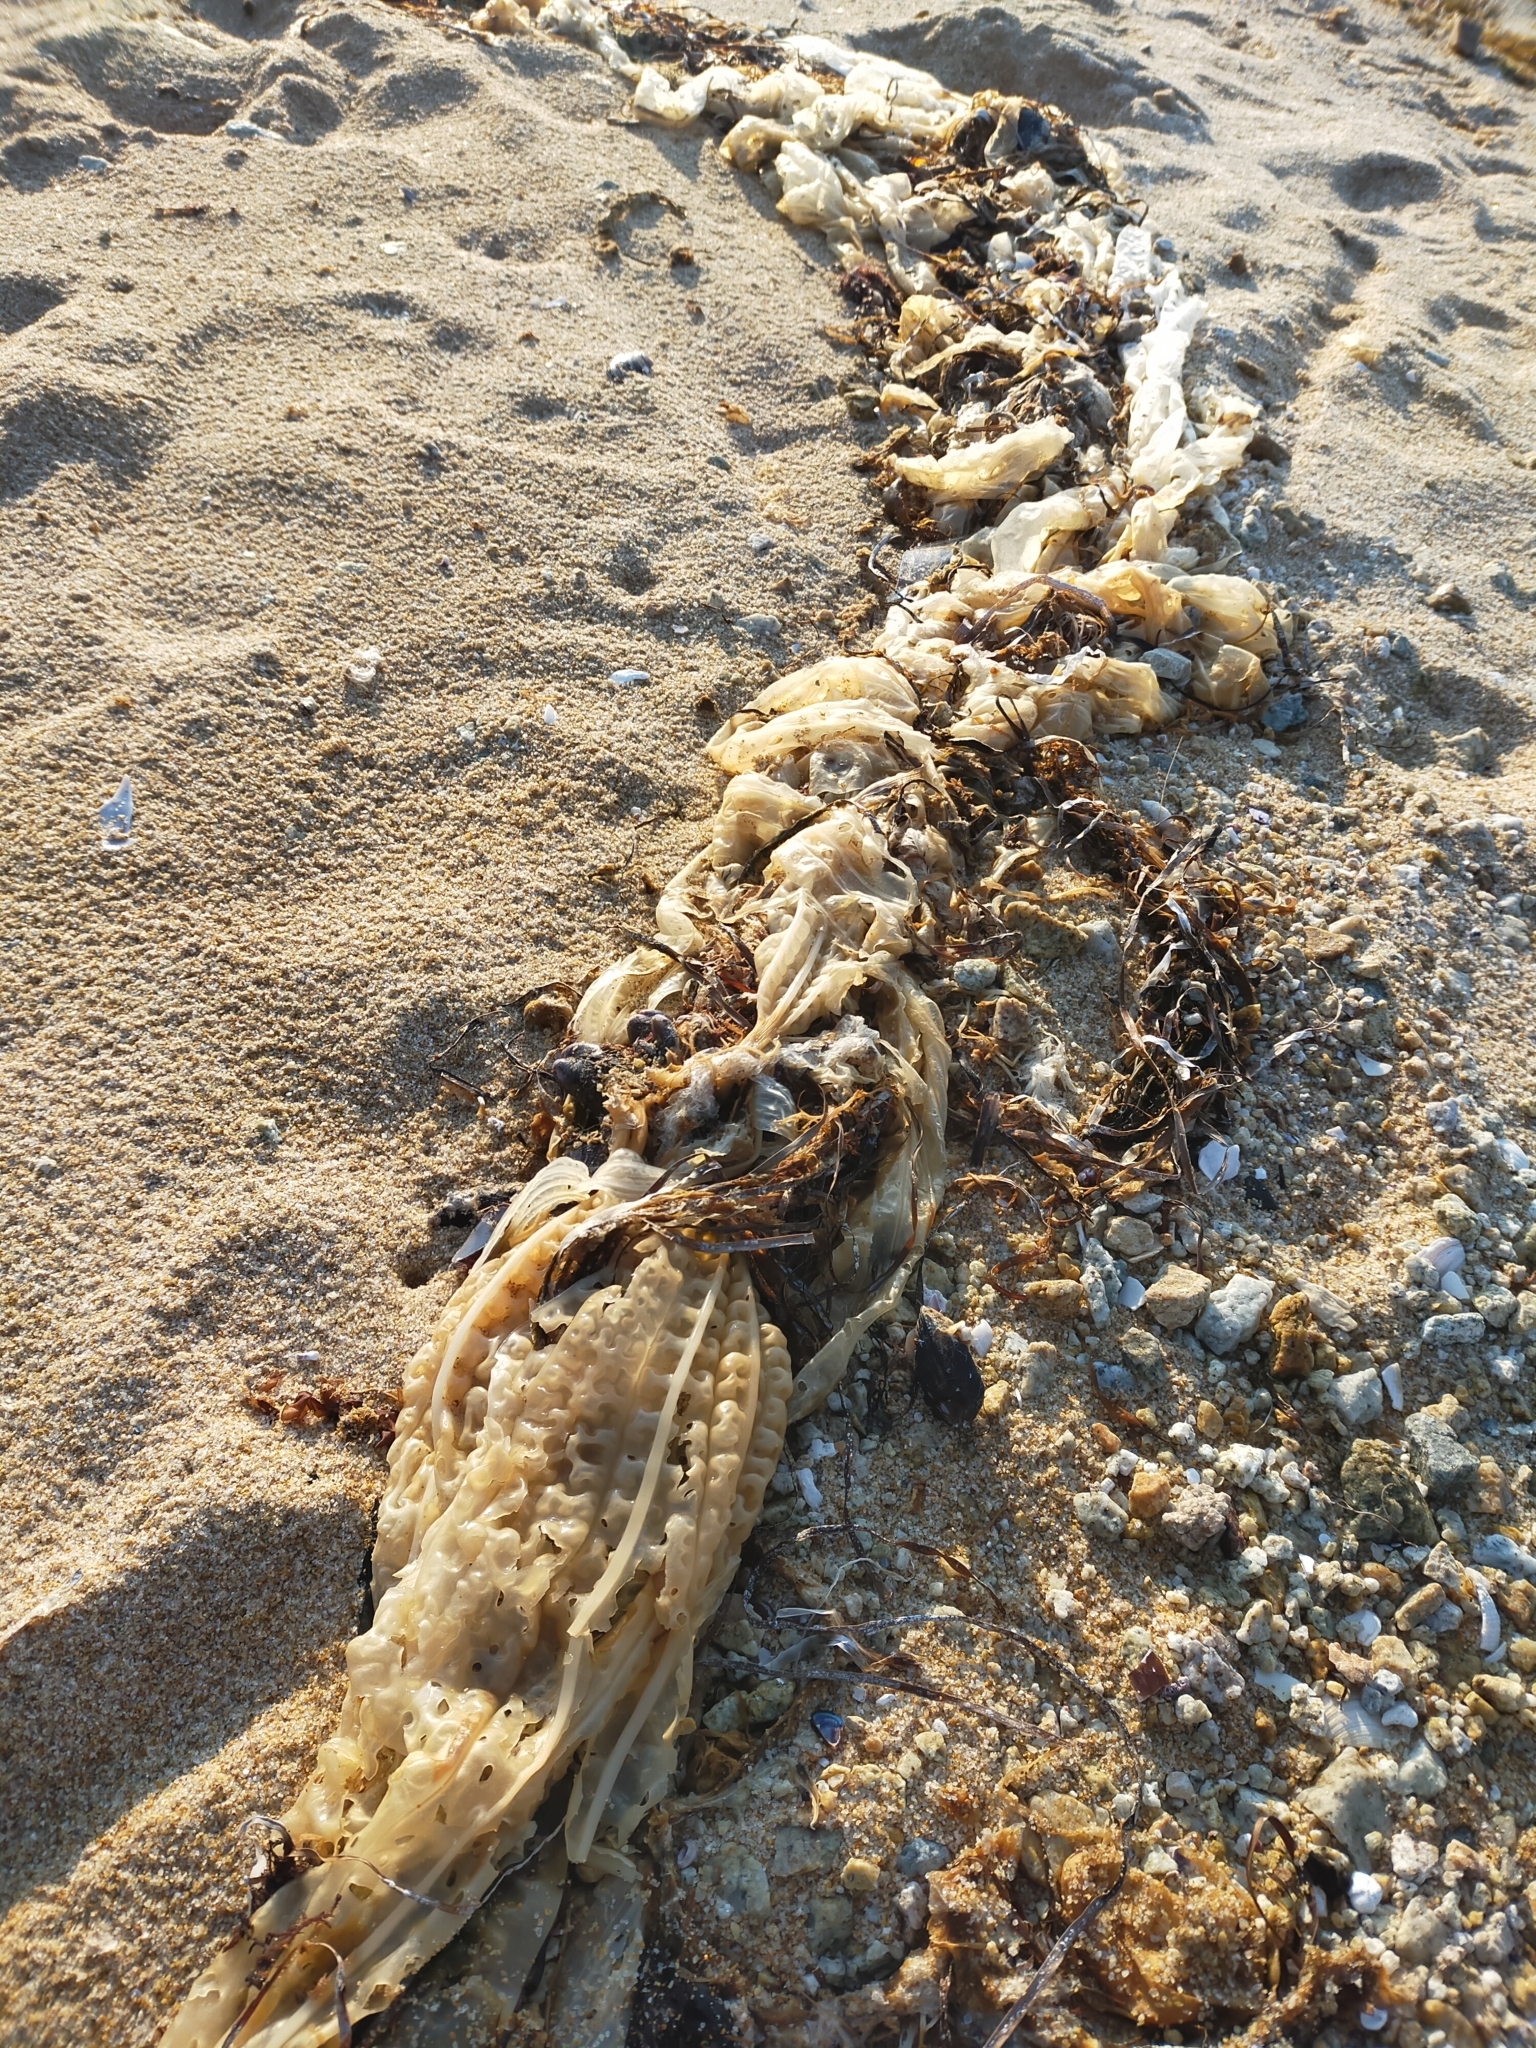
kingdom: Chromista
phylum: Ochrophyta
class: Phaeophyceae
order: Laminariales
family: Costariaceae
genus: Costaria
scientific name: Costaria costata
